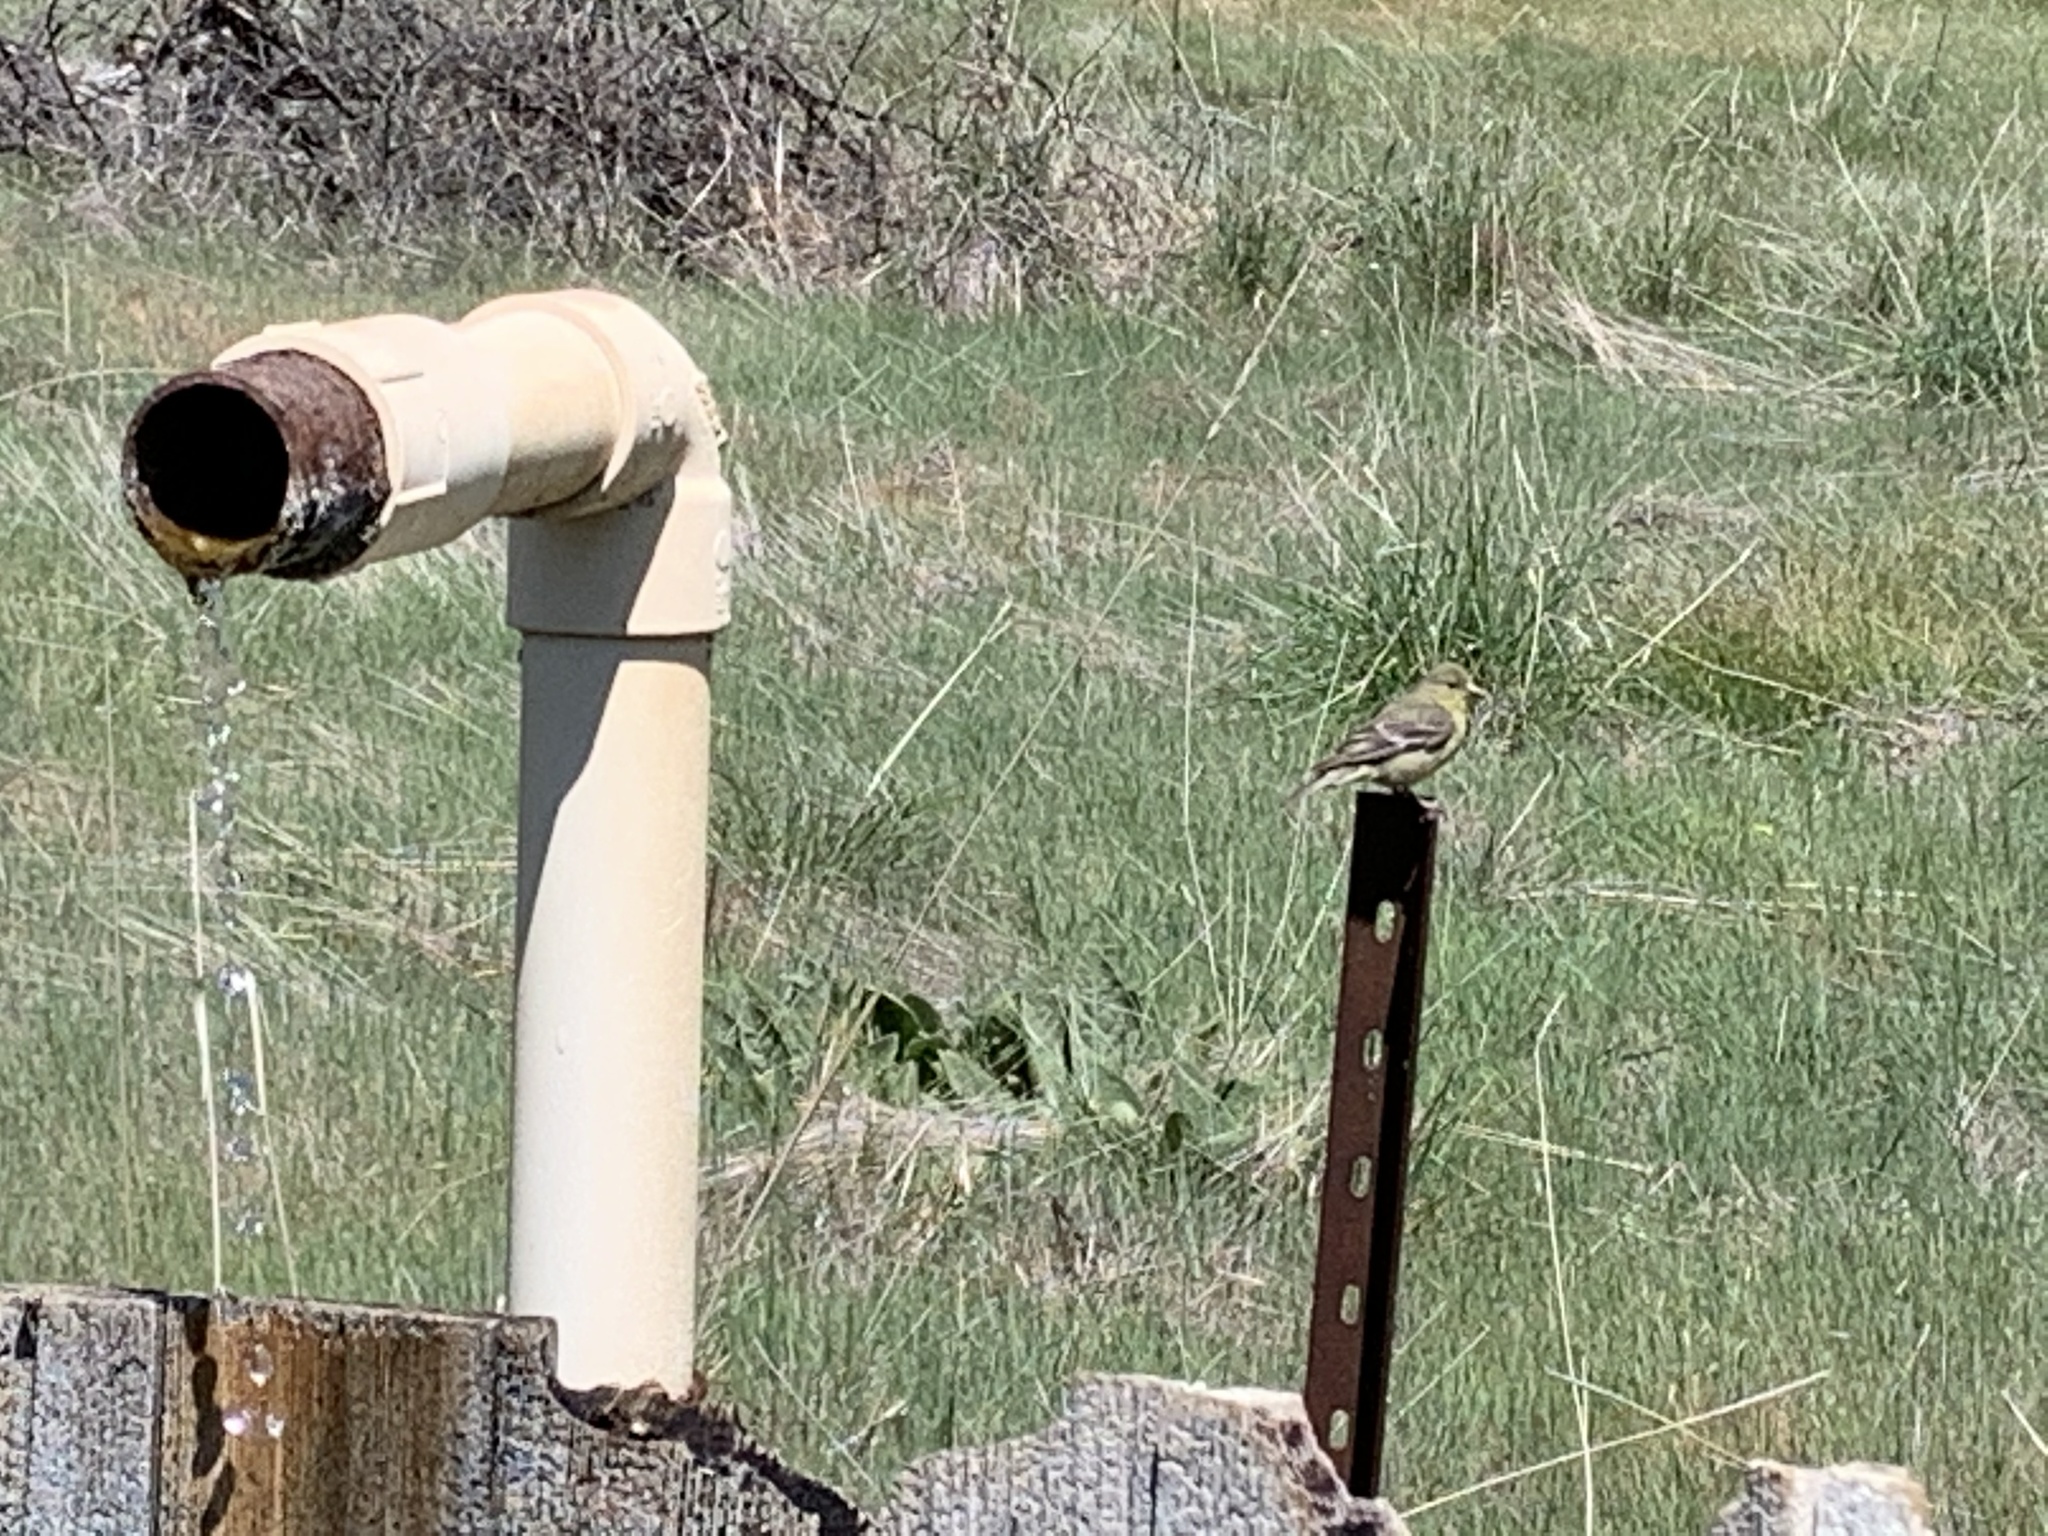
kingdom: Animalia
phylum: Chordata
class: Aves
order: Passeriformes
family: Fringillidae
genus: Spinus
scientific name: Spinus psaltria
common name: Lesser goldfinch
